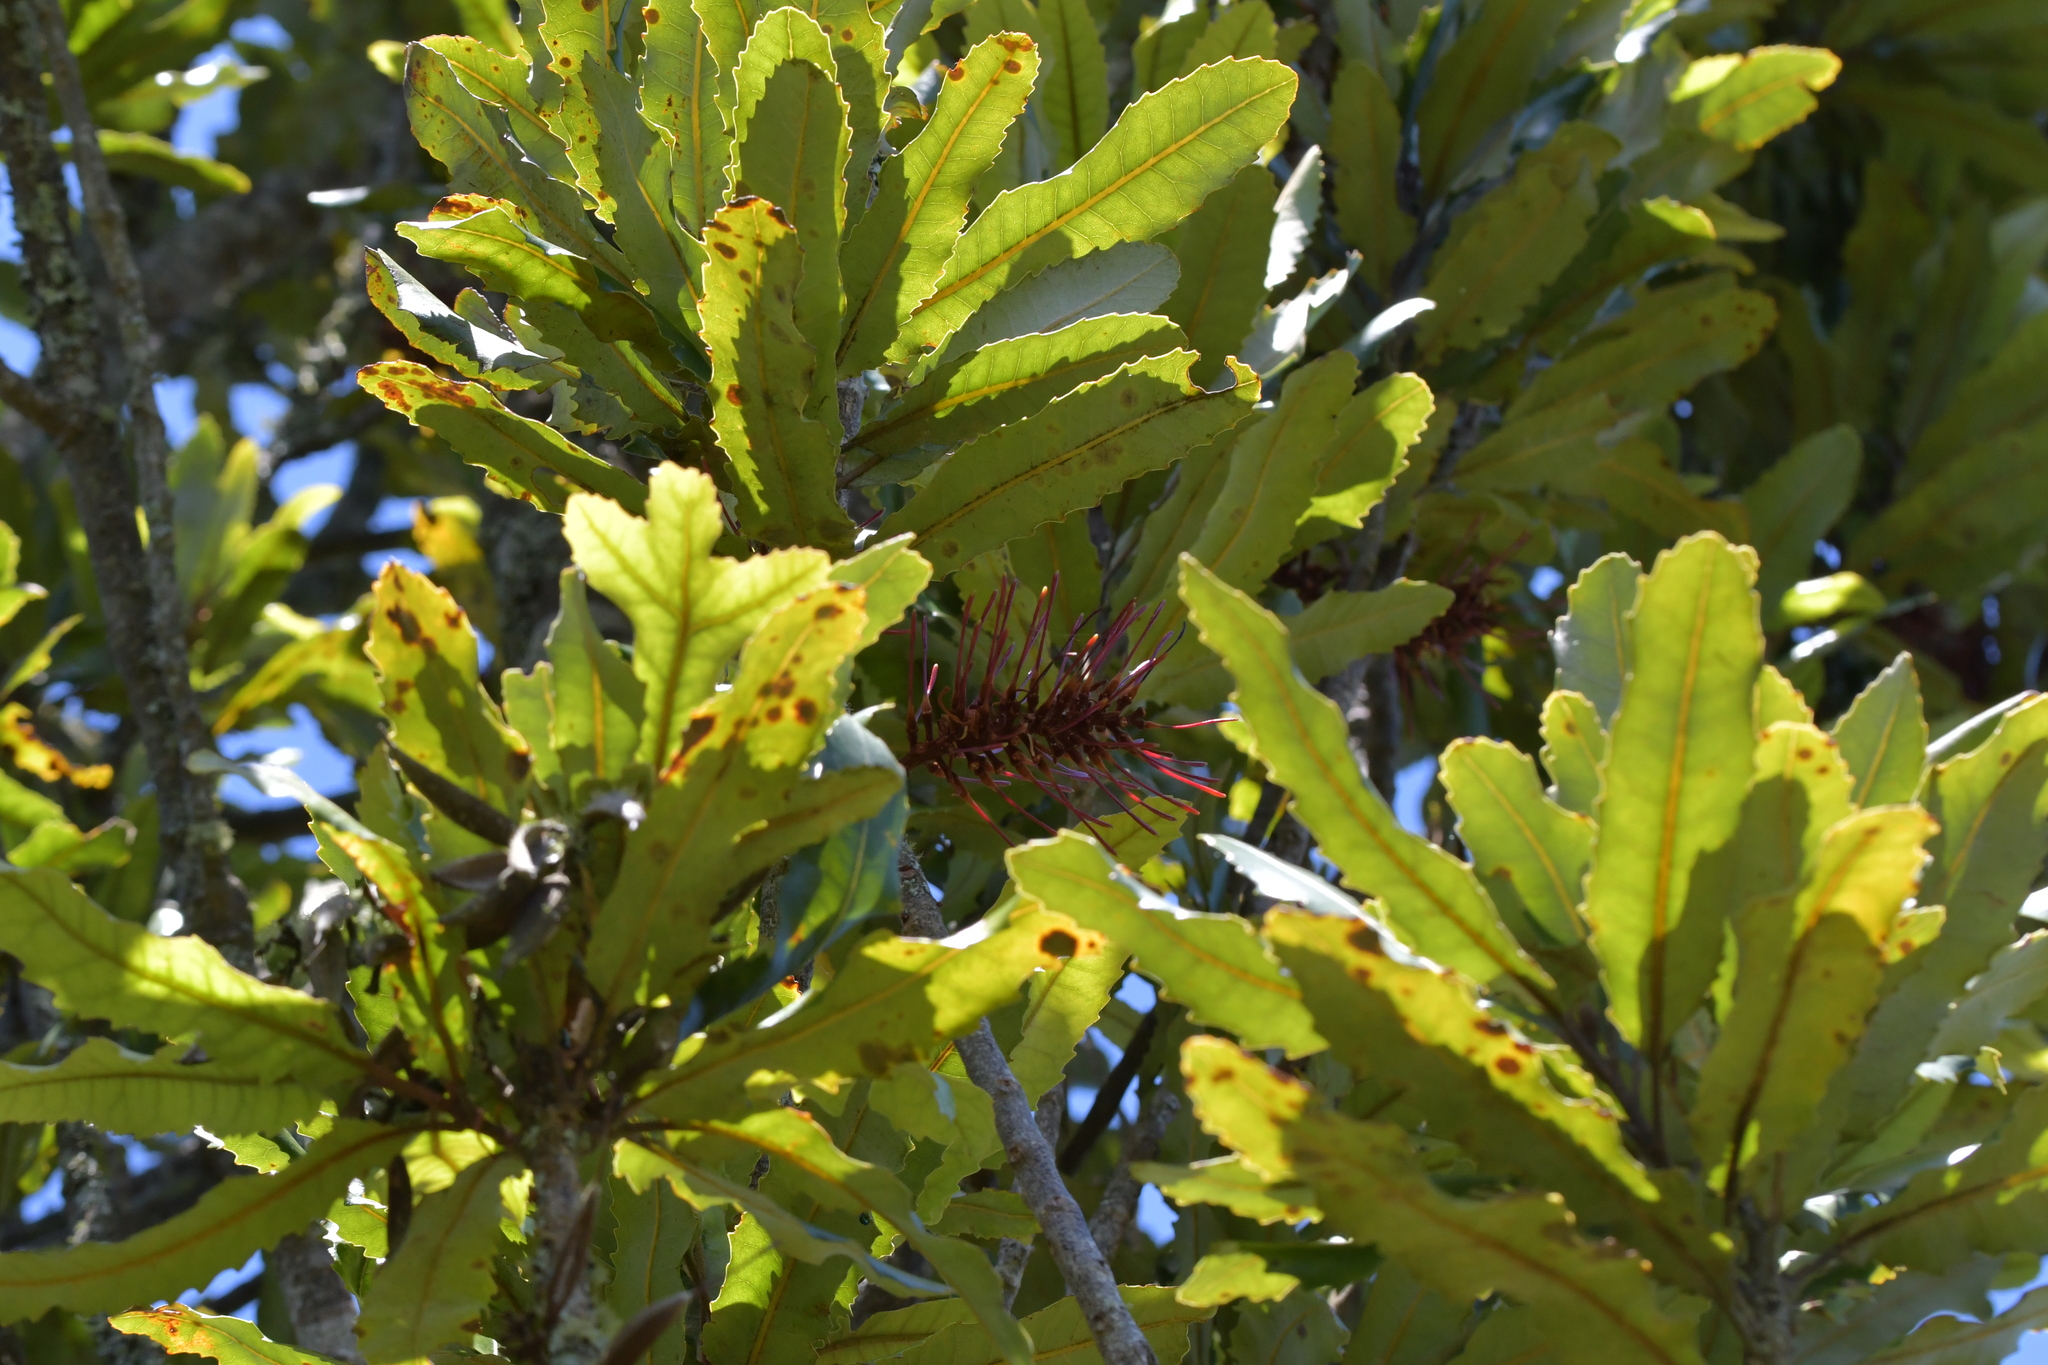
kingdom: Plantae
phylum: Tracheophyta
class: Magnoliopsida
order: Proteales
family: Proteaceae
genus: Knightia
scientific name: Knightia excelsa
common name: New zealand-honeysuckle
